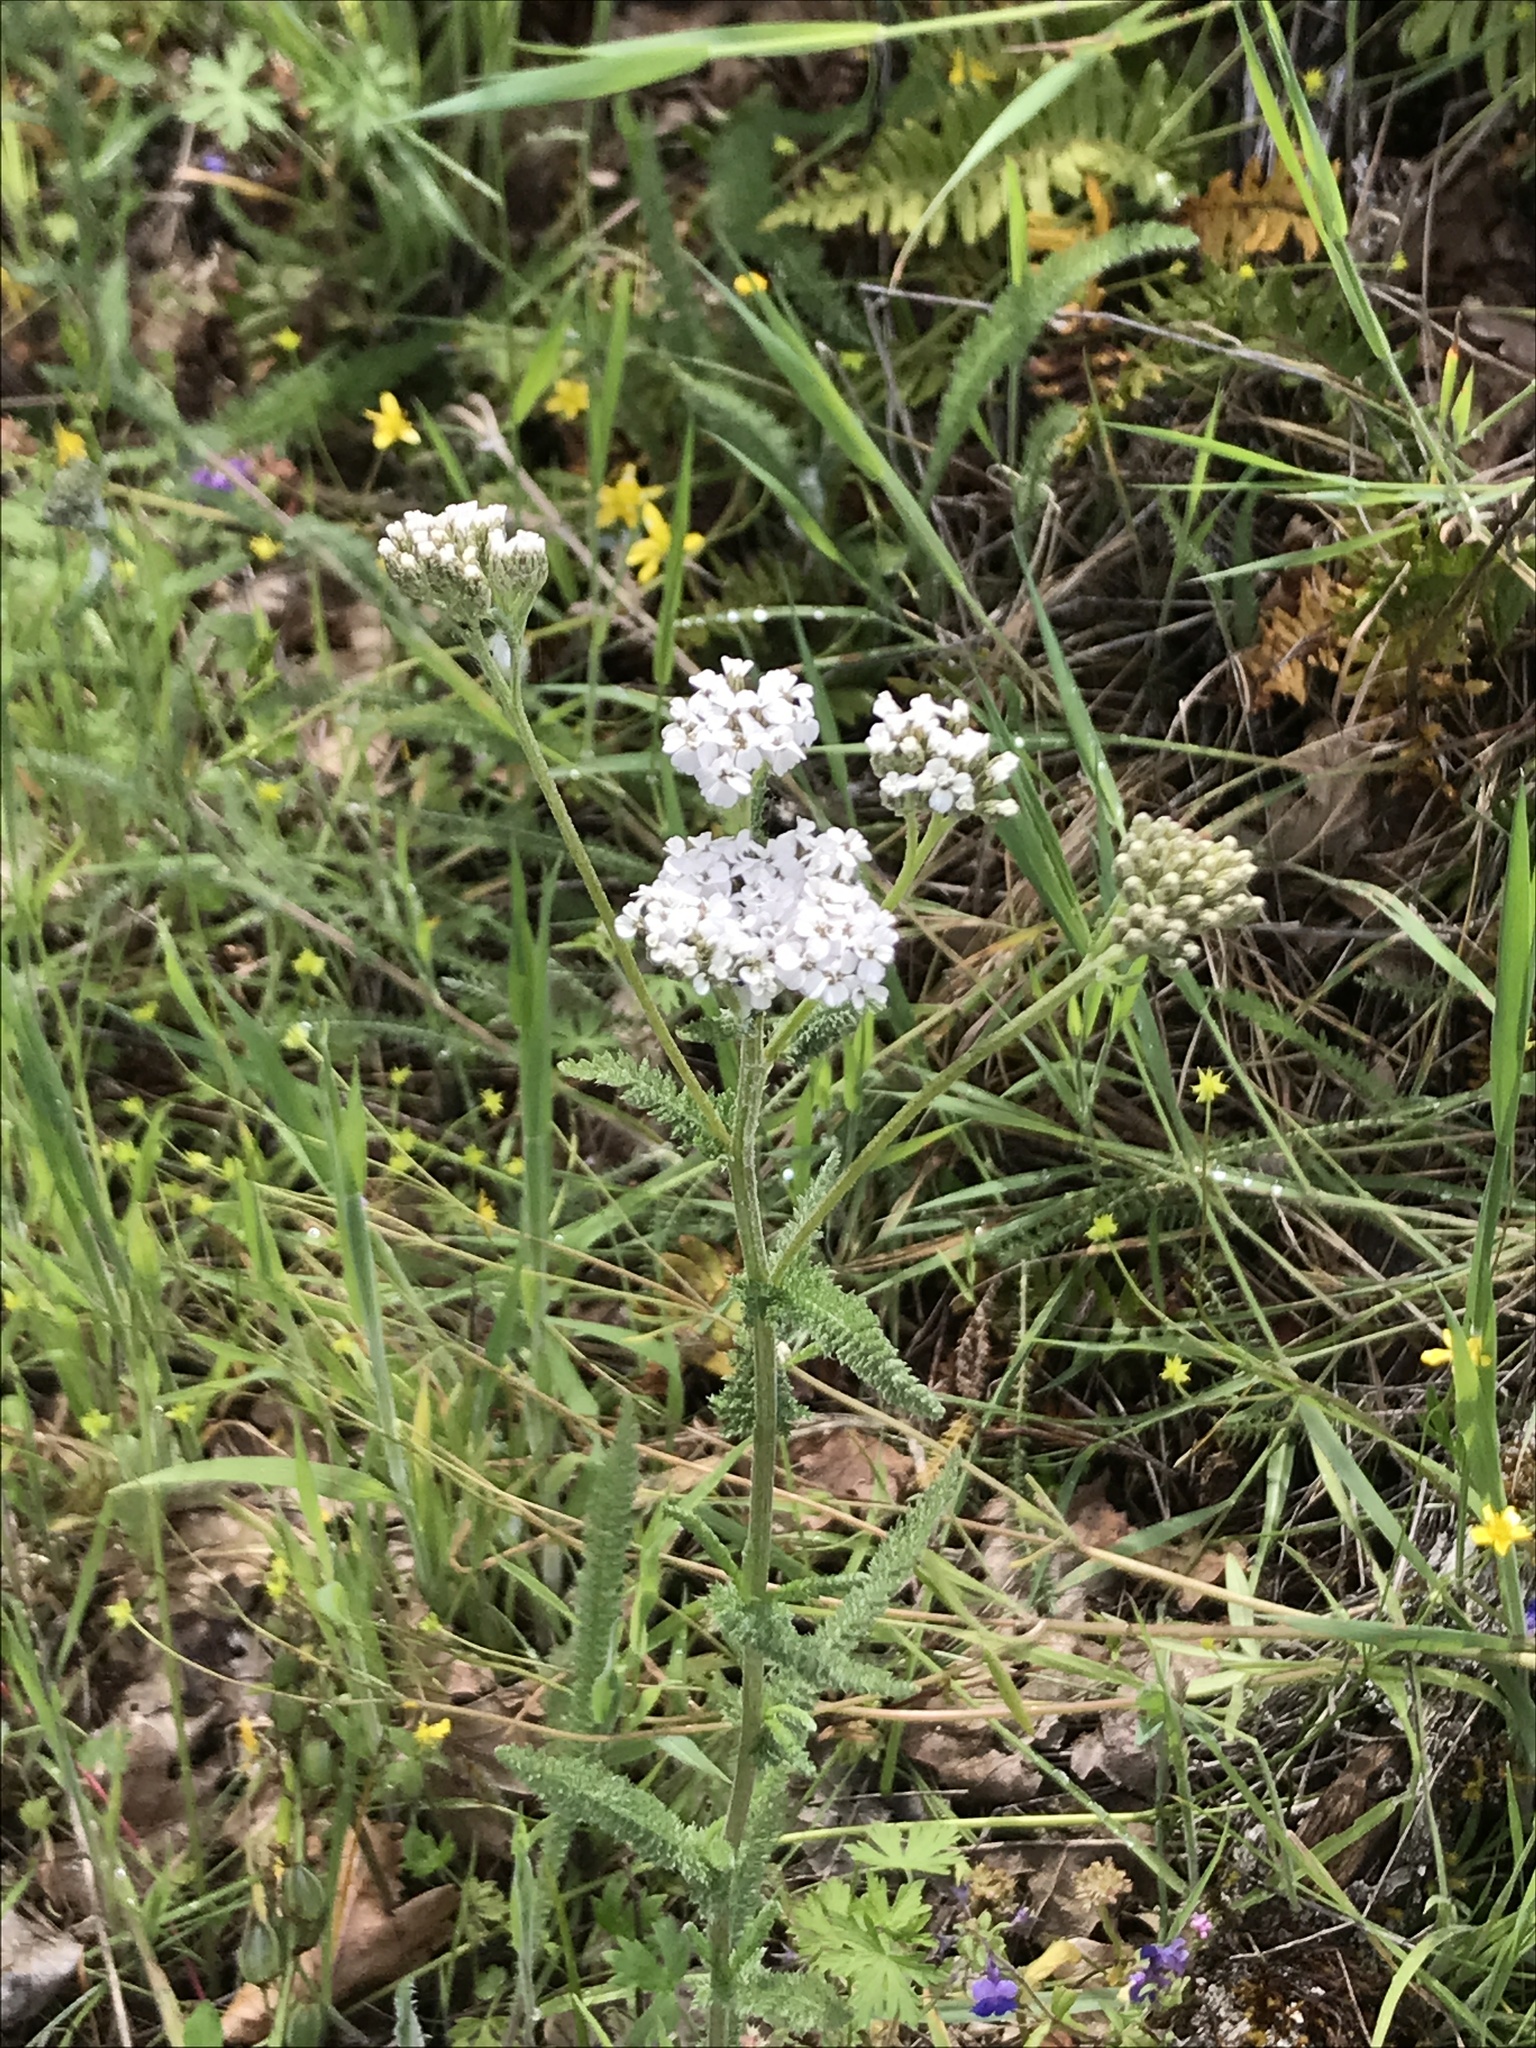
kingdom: Plantae
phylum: Tracheophyta
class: Magnoliopsida
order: Asterales
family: Asteraceae
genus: Achillea
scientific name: Achillea millefolium
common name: Yarrow
